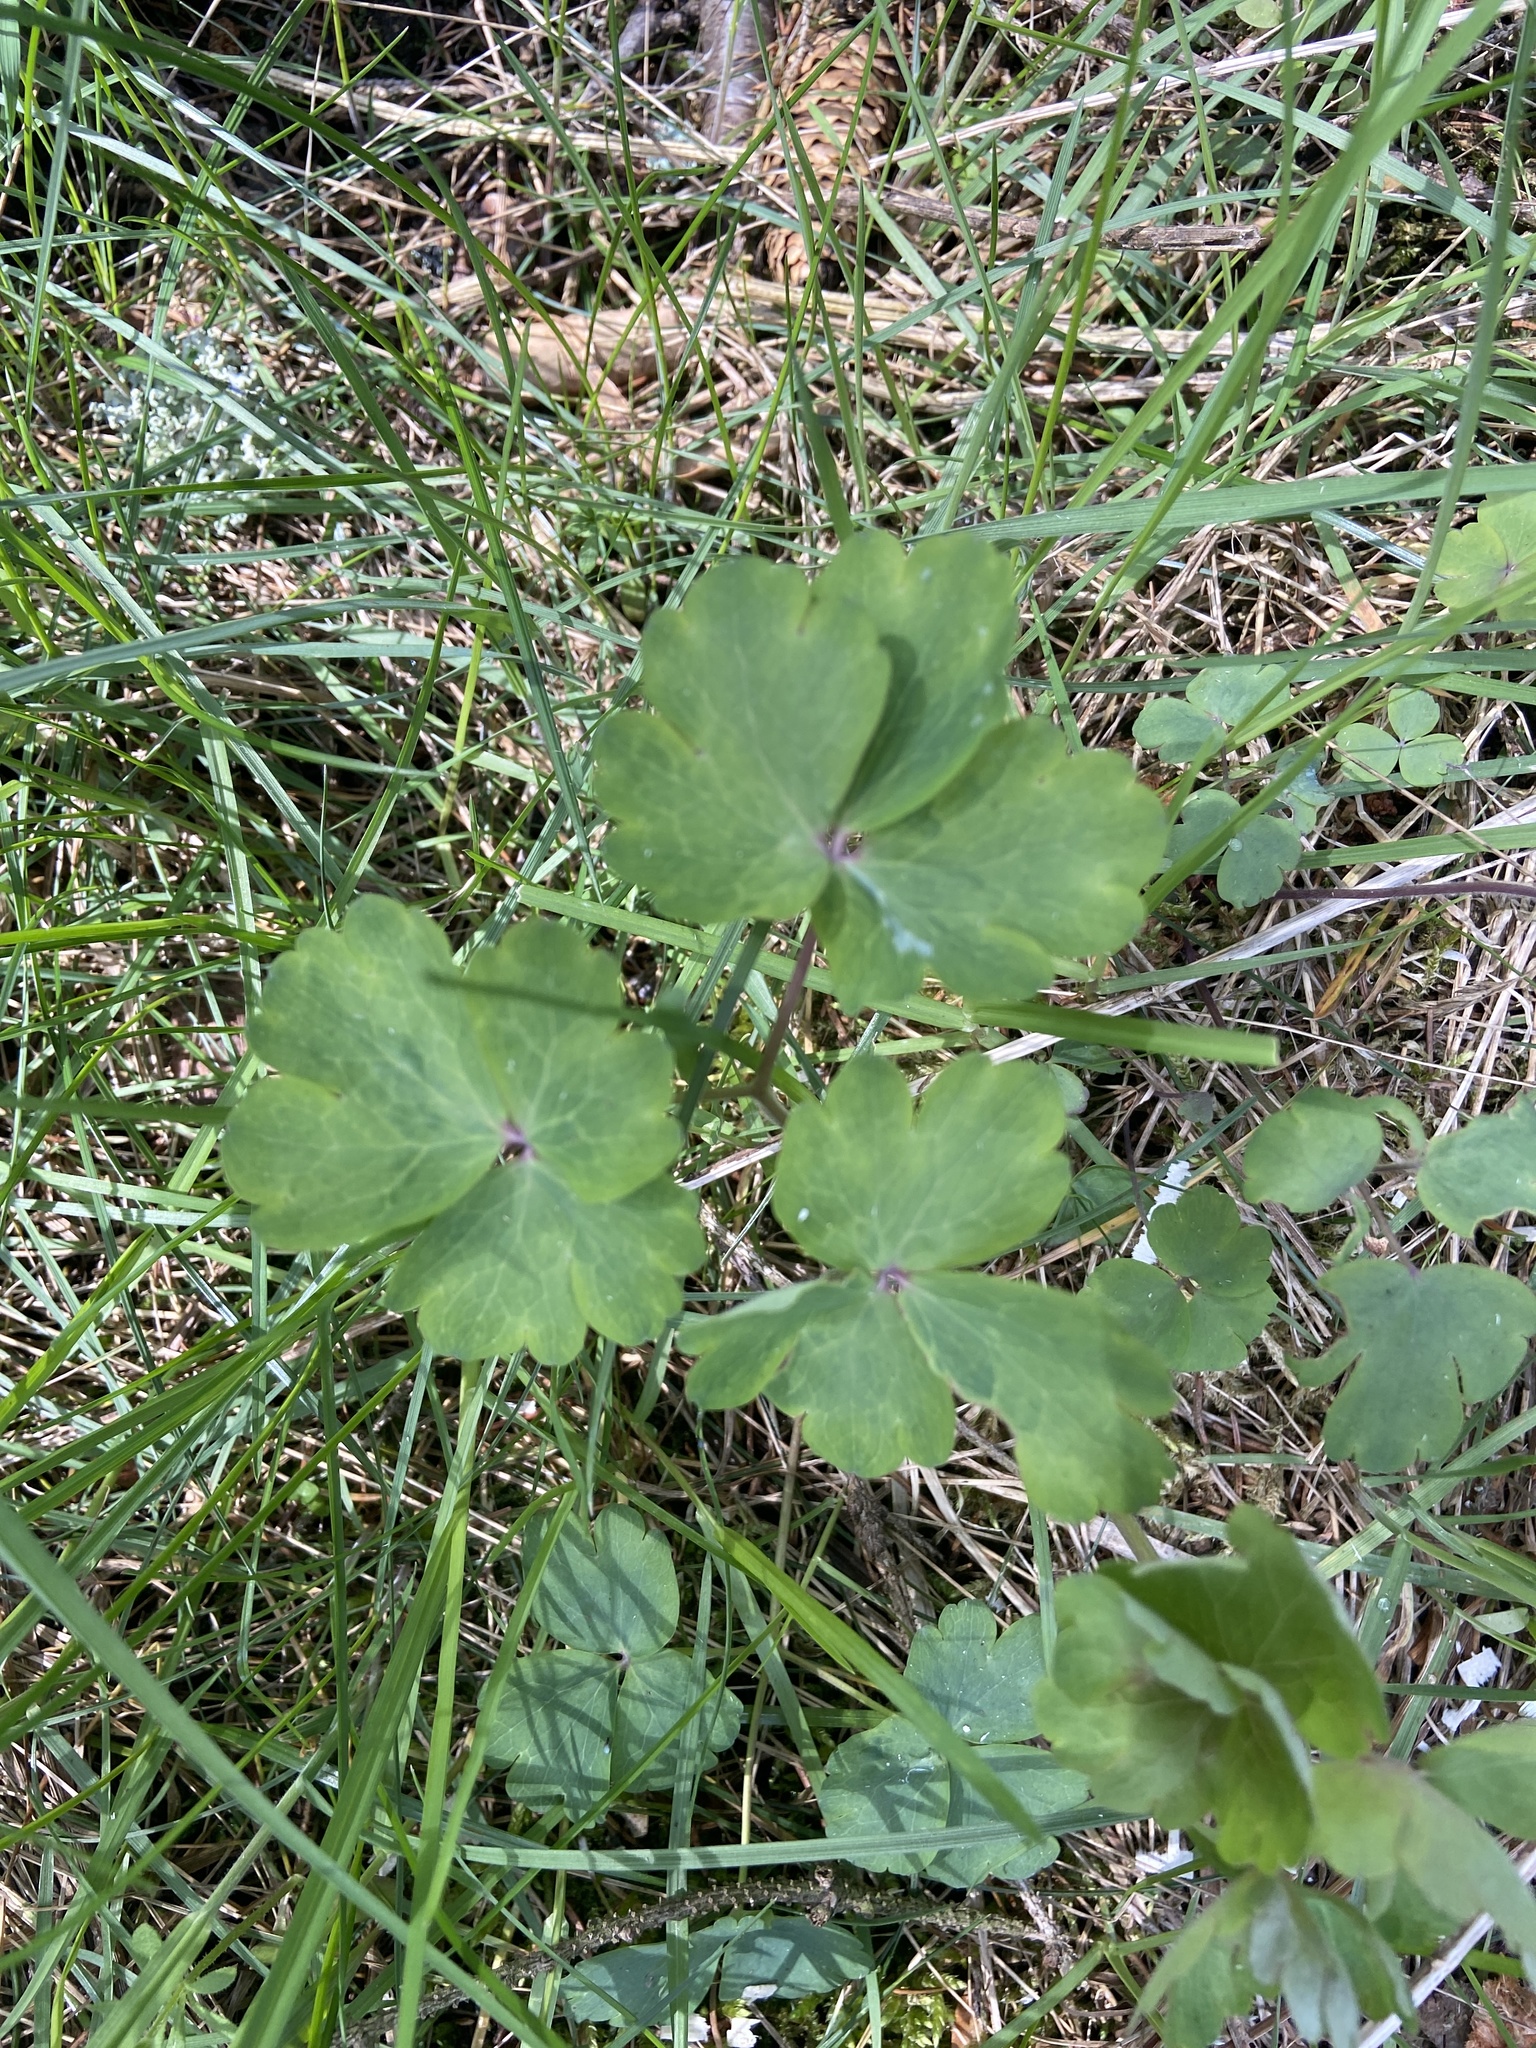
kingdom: Plantae
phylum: Tracheophyta
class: Magnoliopsida
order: Ranunculales
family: Ranunculaceae
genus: Aquilegia
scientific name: Aquilegia vulgaris
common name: Columbine
